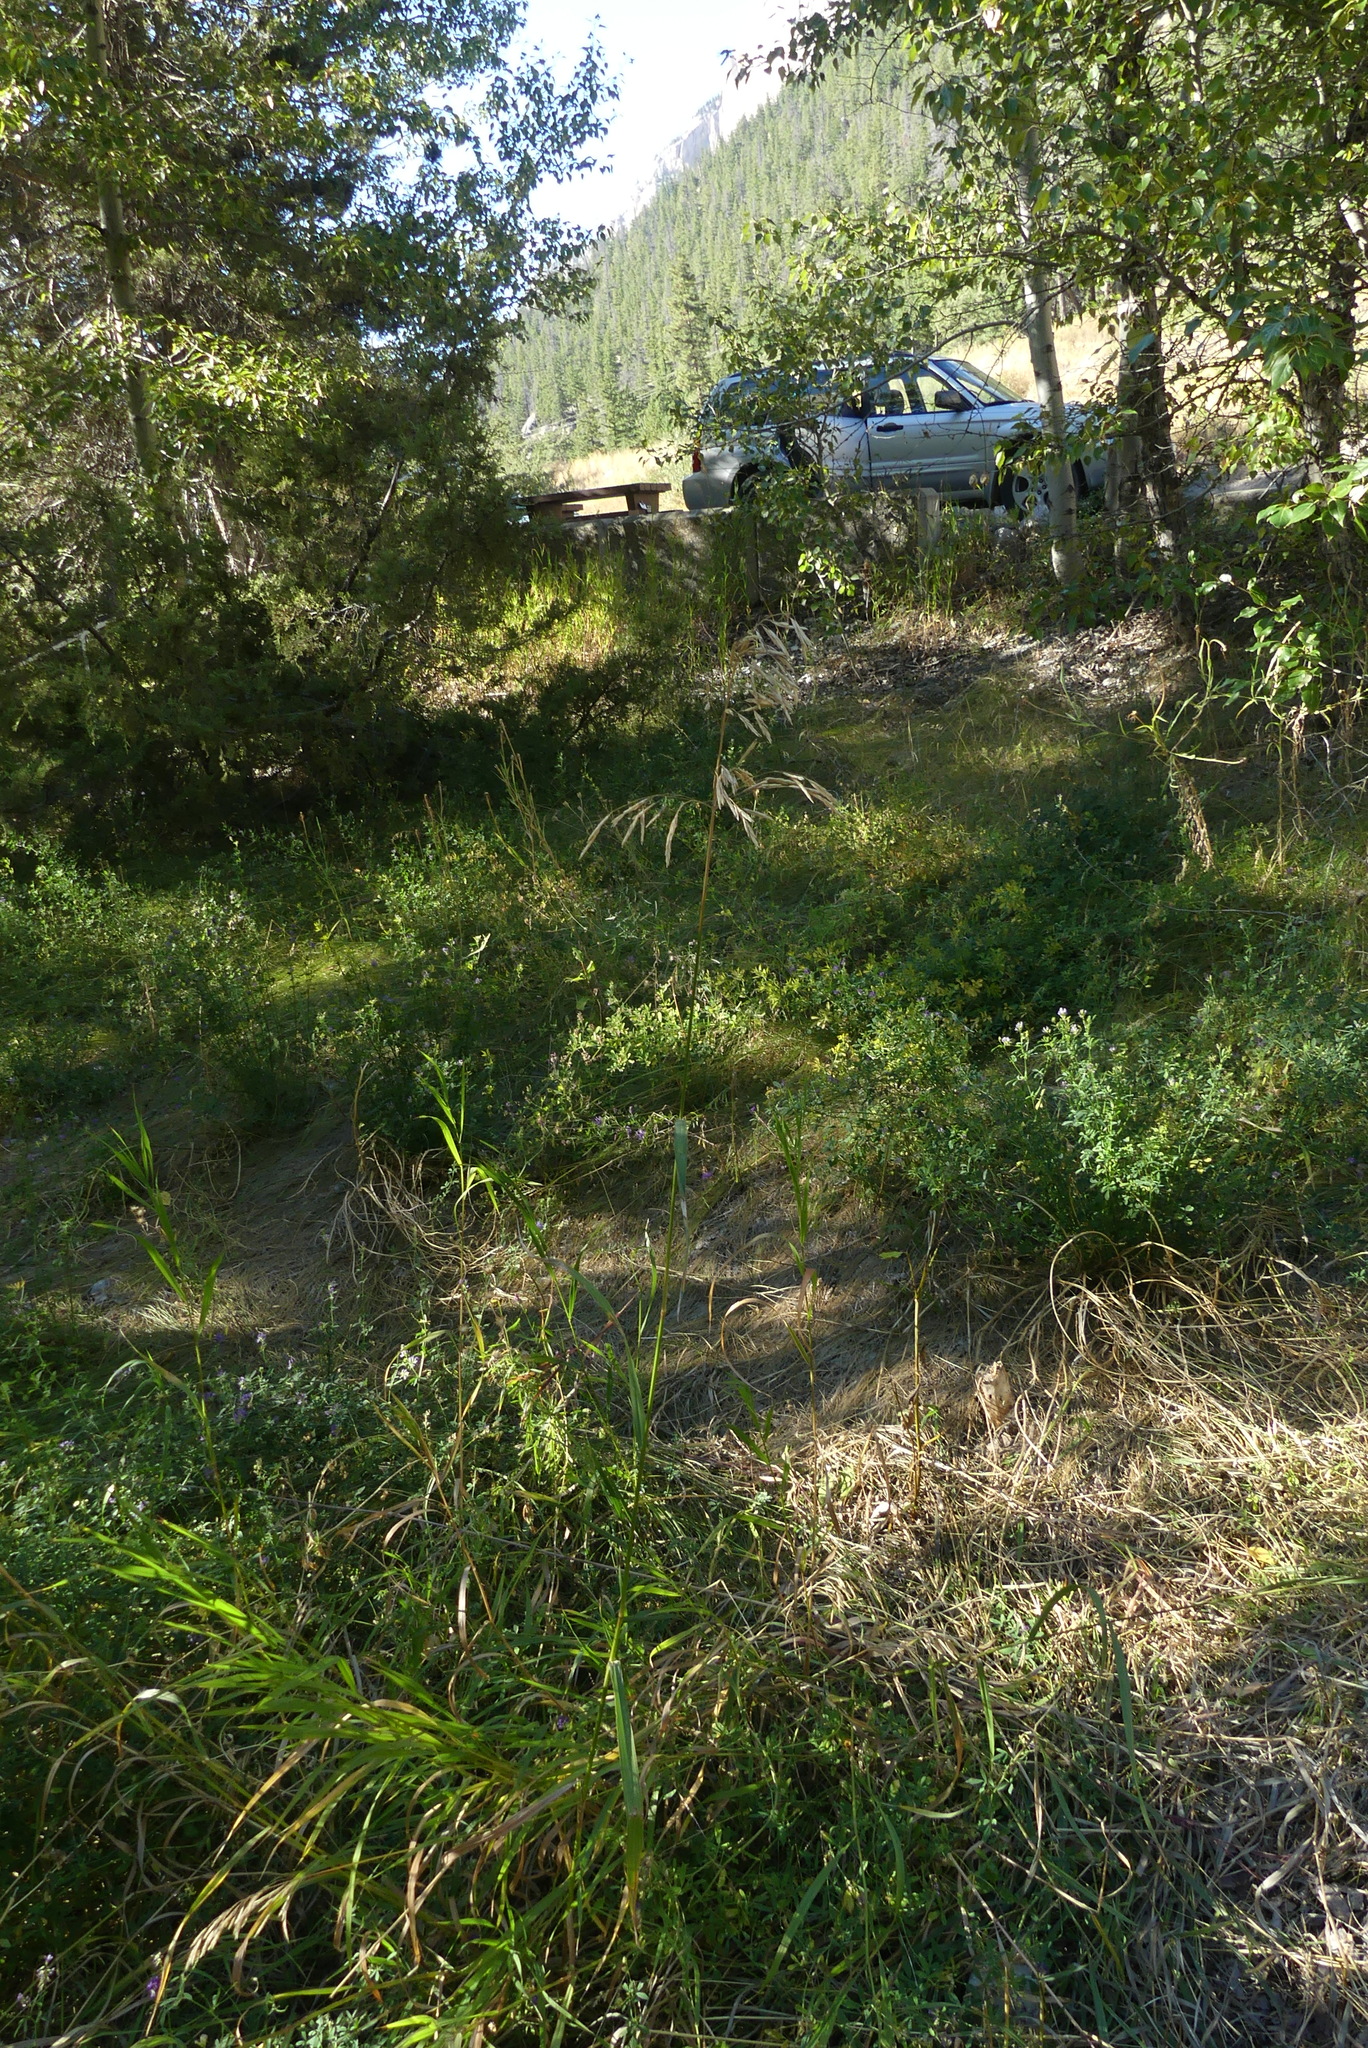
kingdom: Plantae
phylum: Tracheophyta
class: Liliopsida
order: Poales
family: Poaceae
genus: Bromus
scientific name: Bromus inermis
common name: Smooth brome
